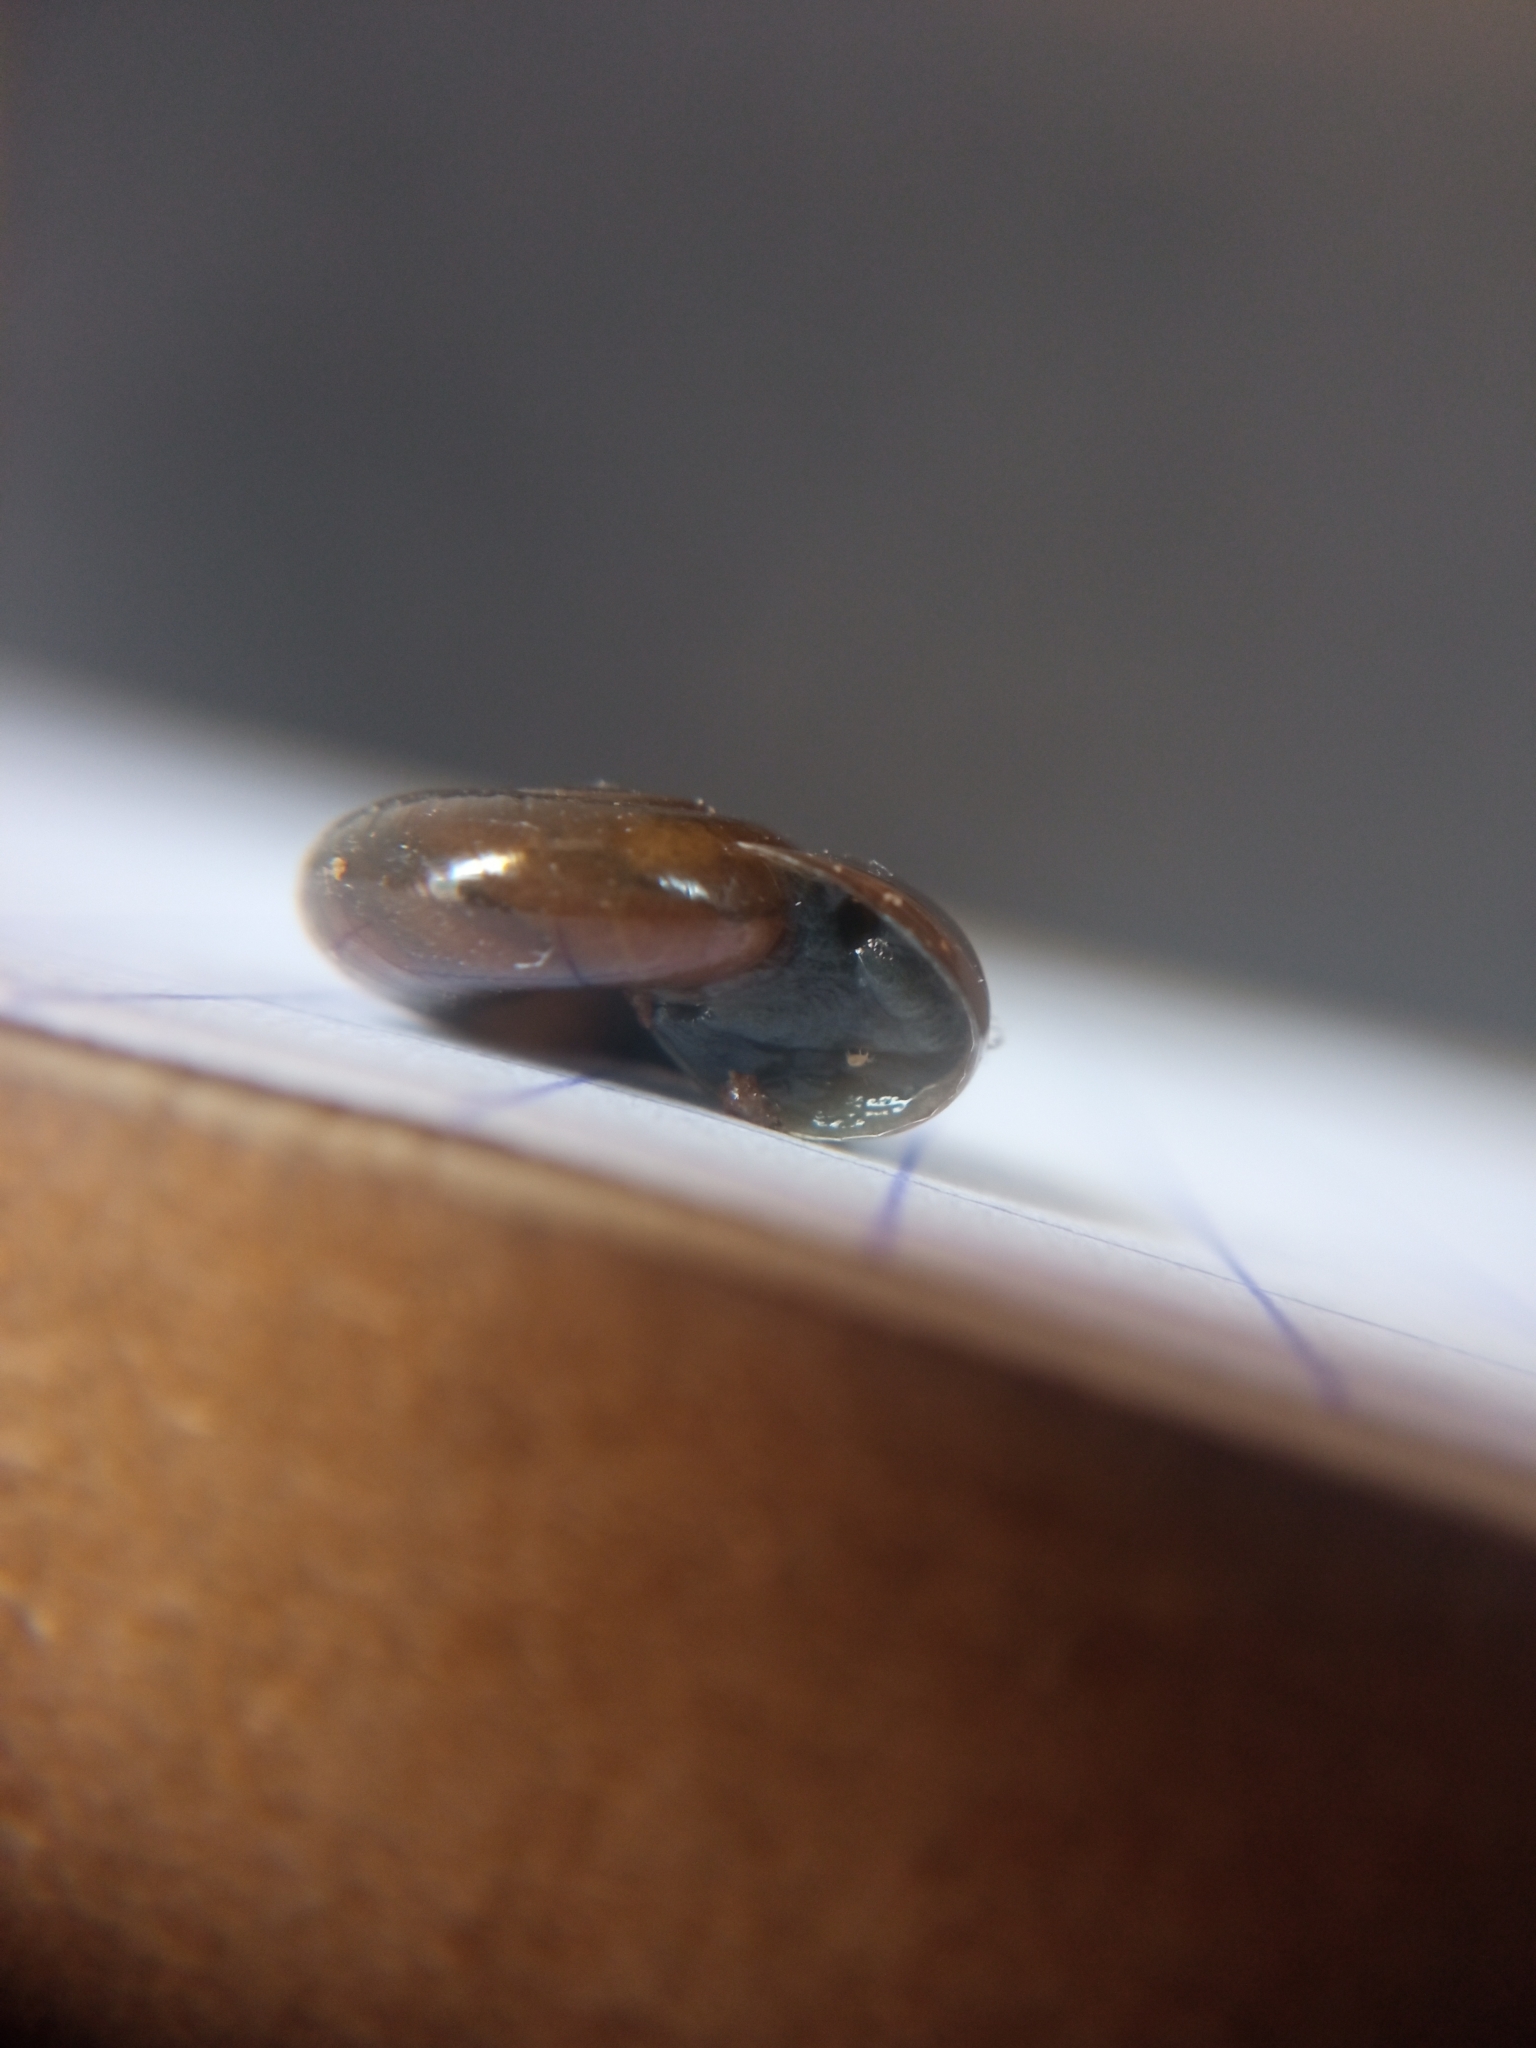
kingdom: Animalia
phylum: Mollusca
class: Gastropoda
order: Stylommatophora
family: Oxychilidae
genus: Oxychilus
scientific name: Oxychilus draparnaudi
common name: Draparnaud's glass snail
